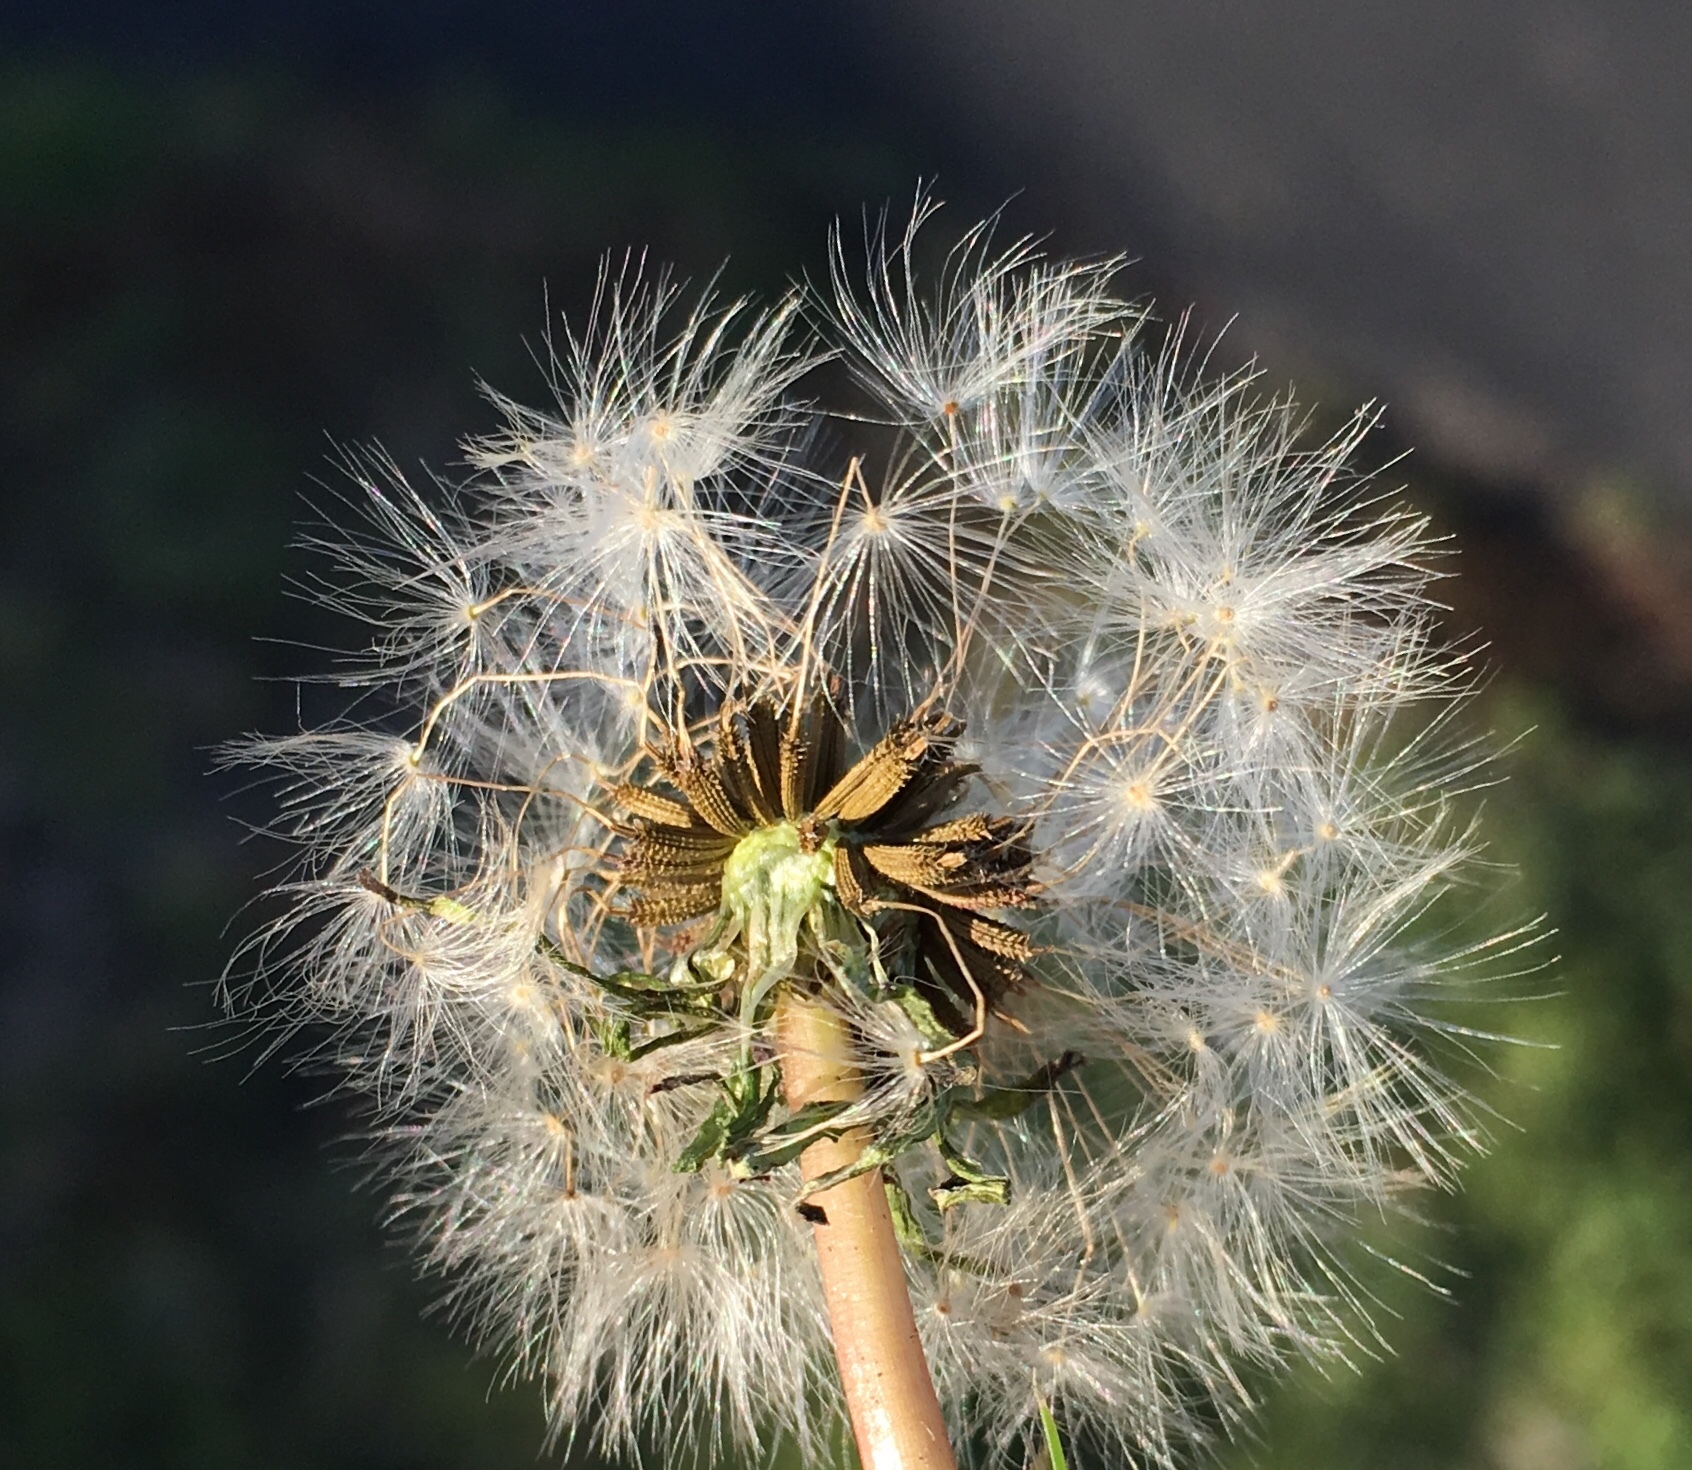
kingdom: Plantae
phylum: Tracheophyta
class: Magnoliopsida
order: Asterales
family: Asteraceae
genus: Taraxacum
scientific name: Taraxacum officinale
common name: Common dandelion
